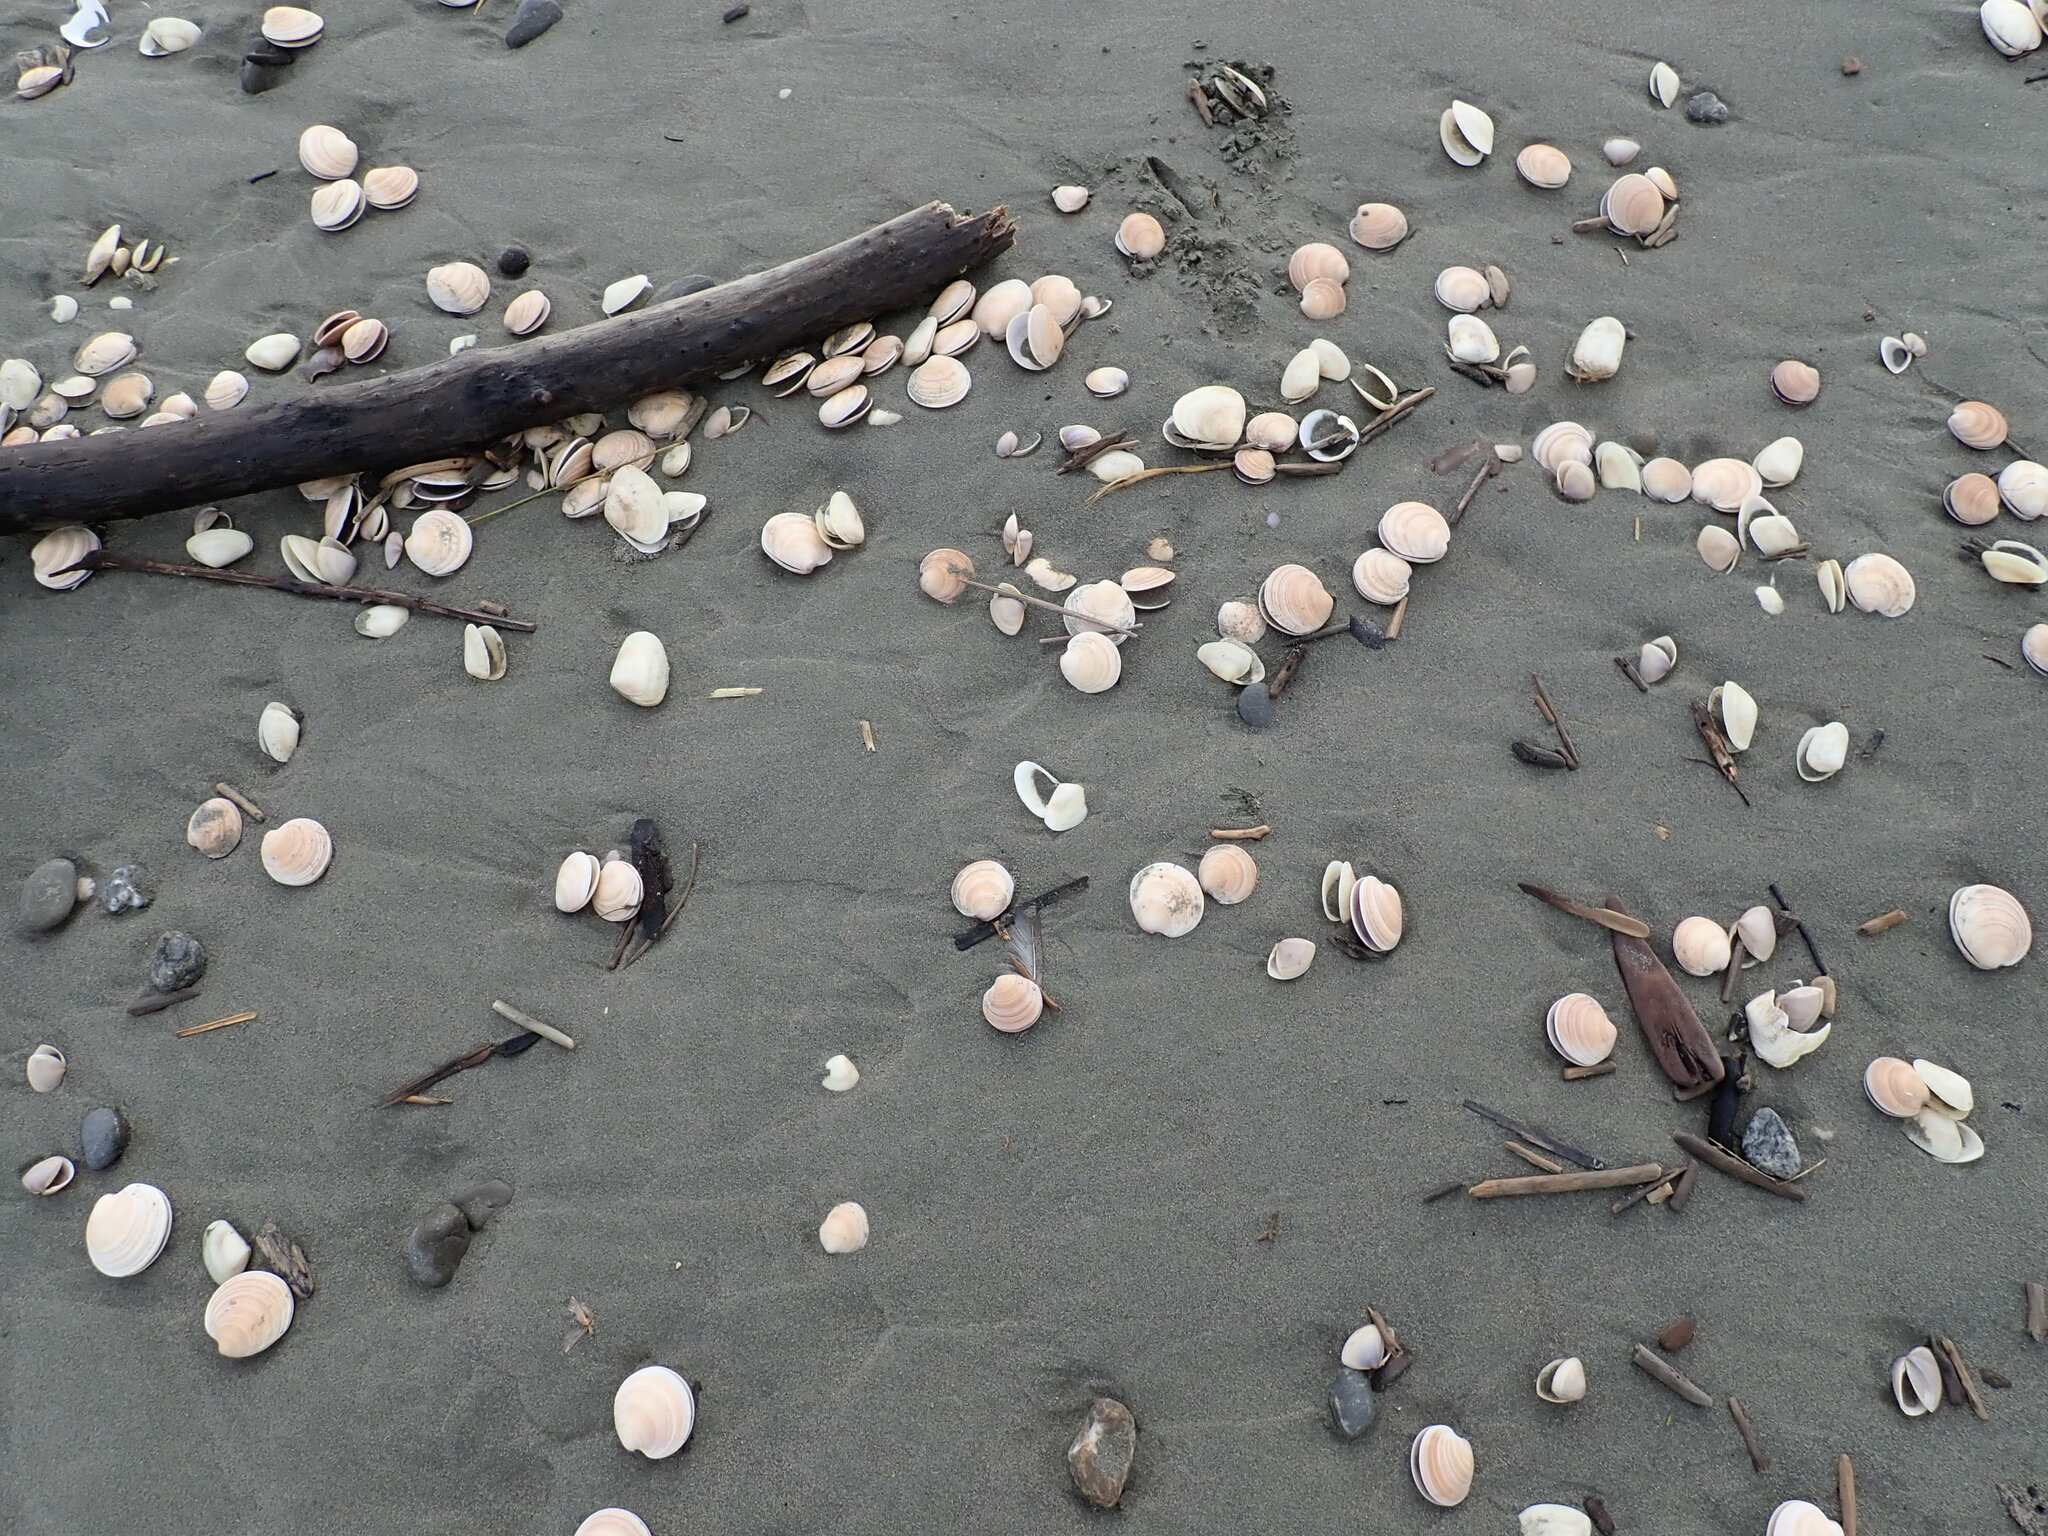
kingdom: Animalia
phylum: Mollusca
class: Bivalvia
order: Venerida
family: Veneridae
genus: Dosinia
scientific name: Dosinia anus
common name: Old-woman dosinia
